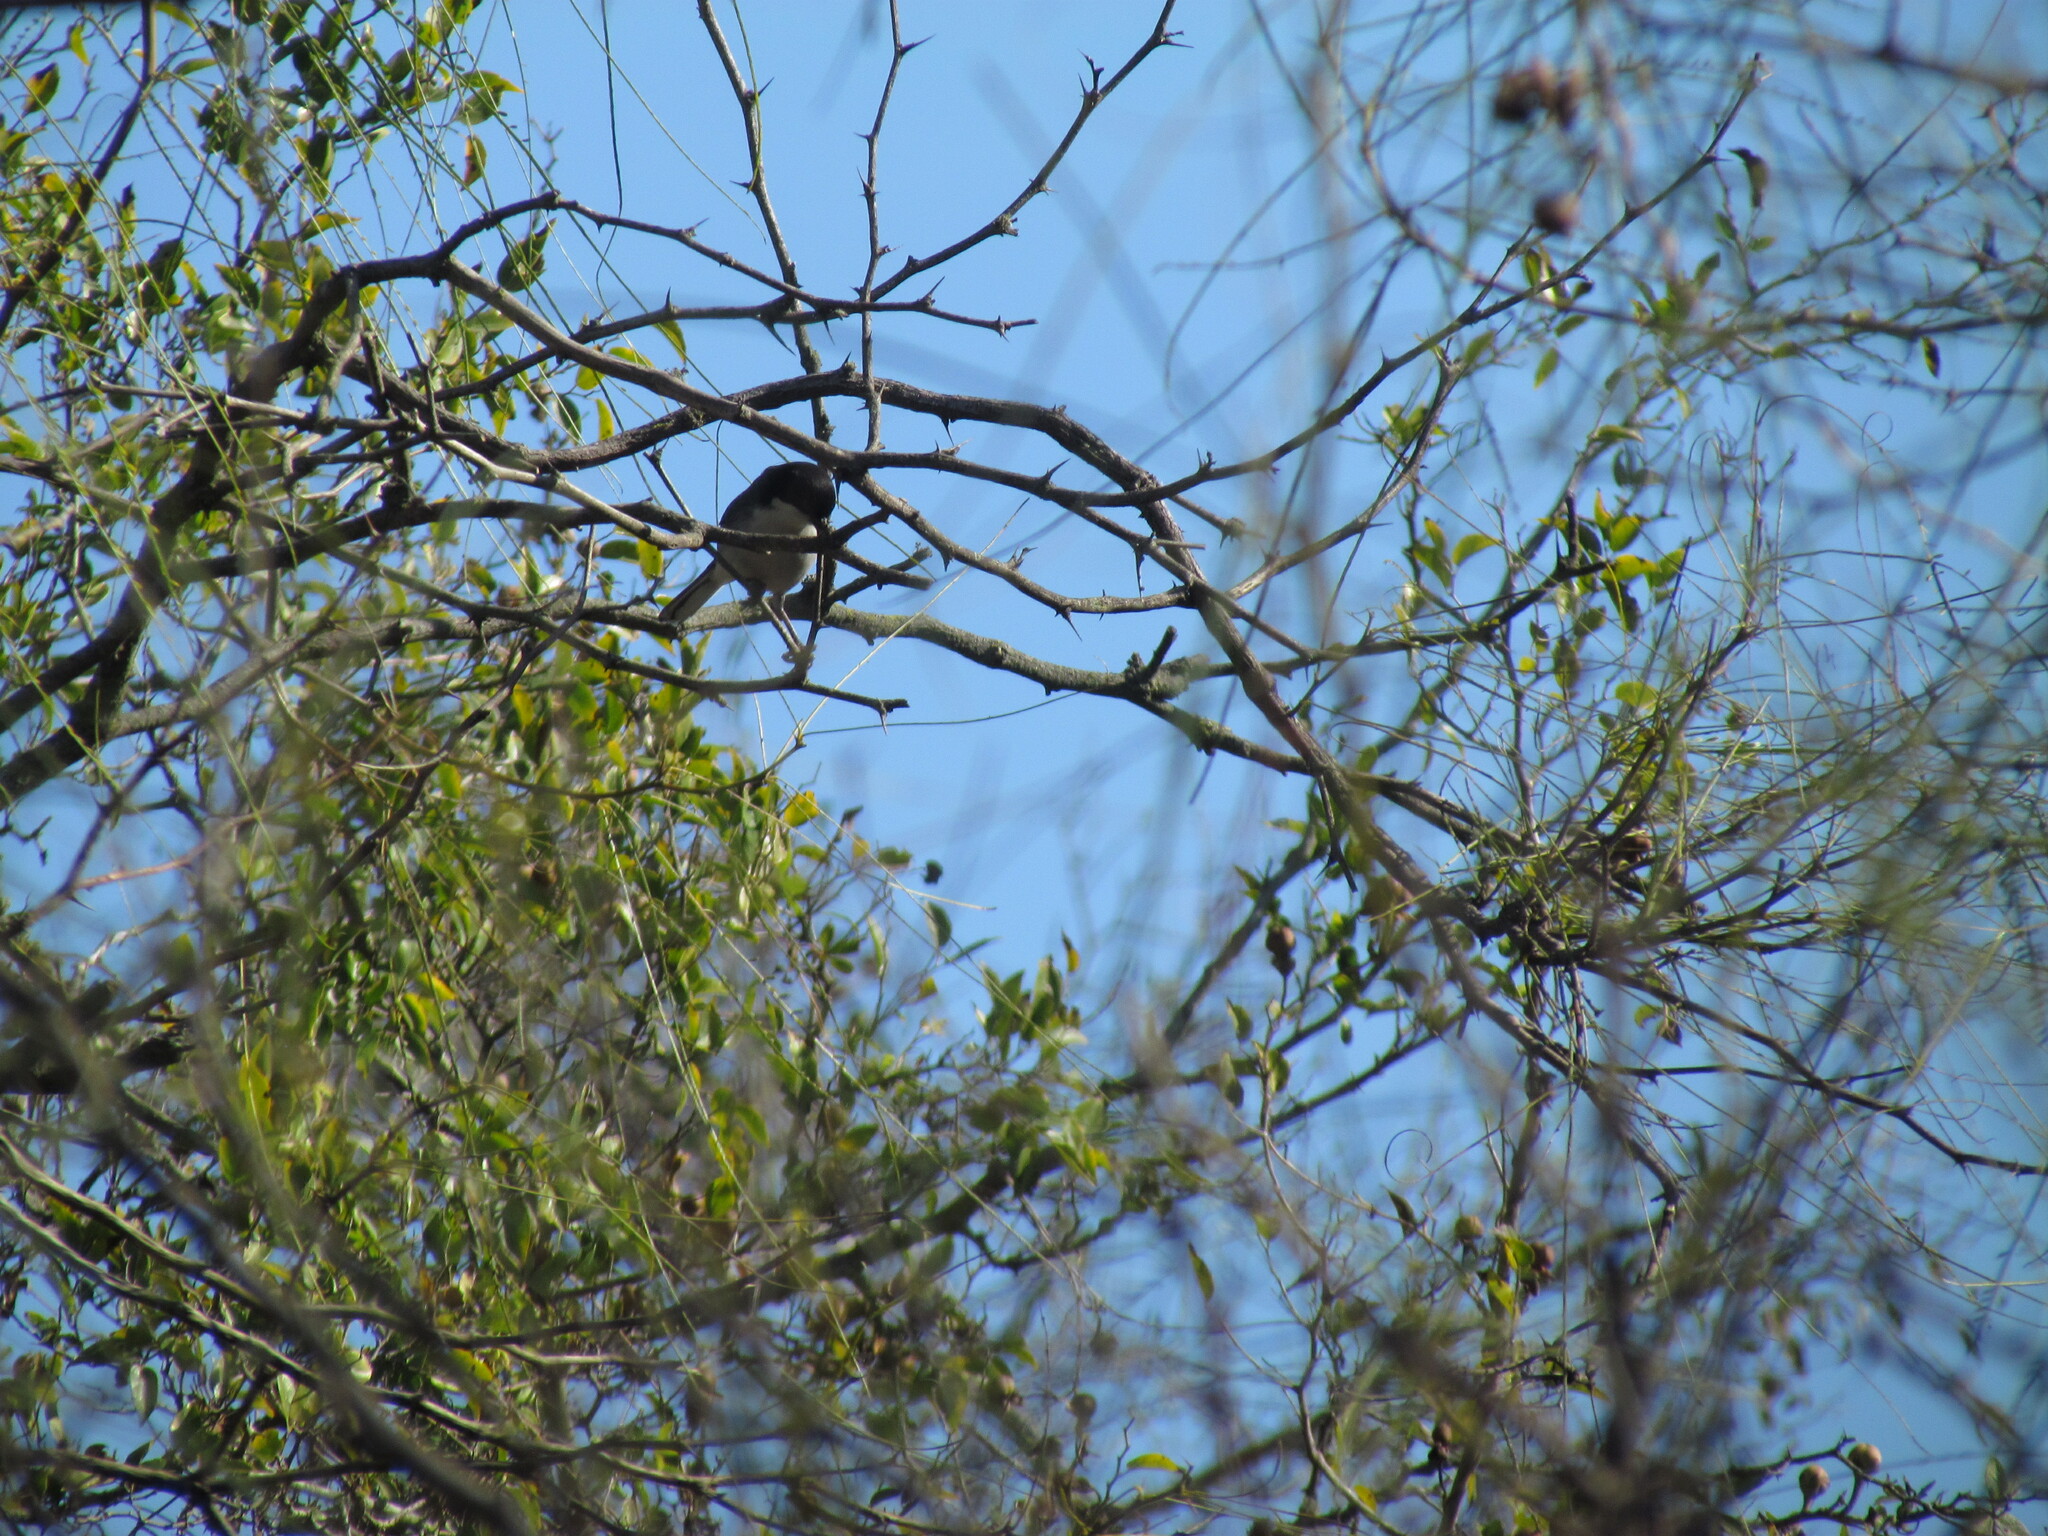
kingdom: Animalia
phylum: Chordata
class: Aves
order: Passeriformes
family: Thraupidae
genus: Microspingus
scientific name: Microspingus melanoleucus
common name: Black-capped warbling-finch
